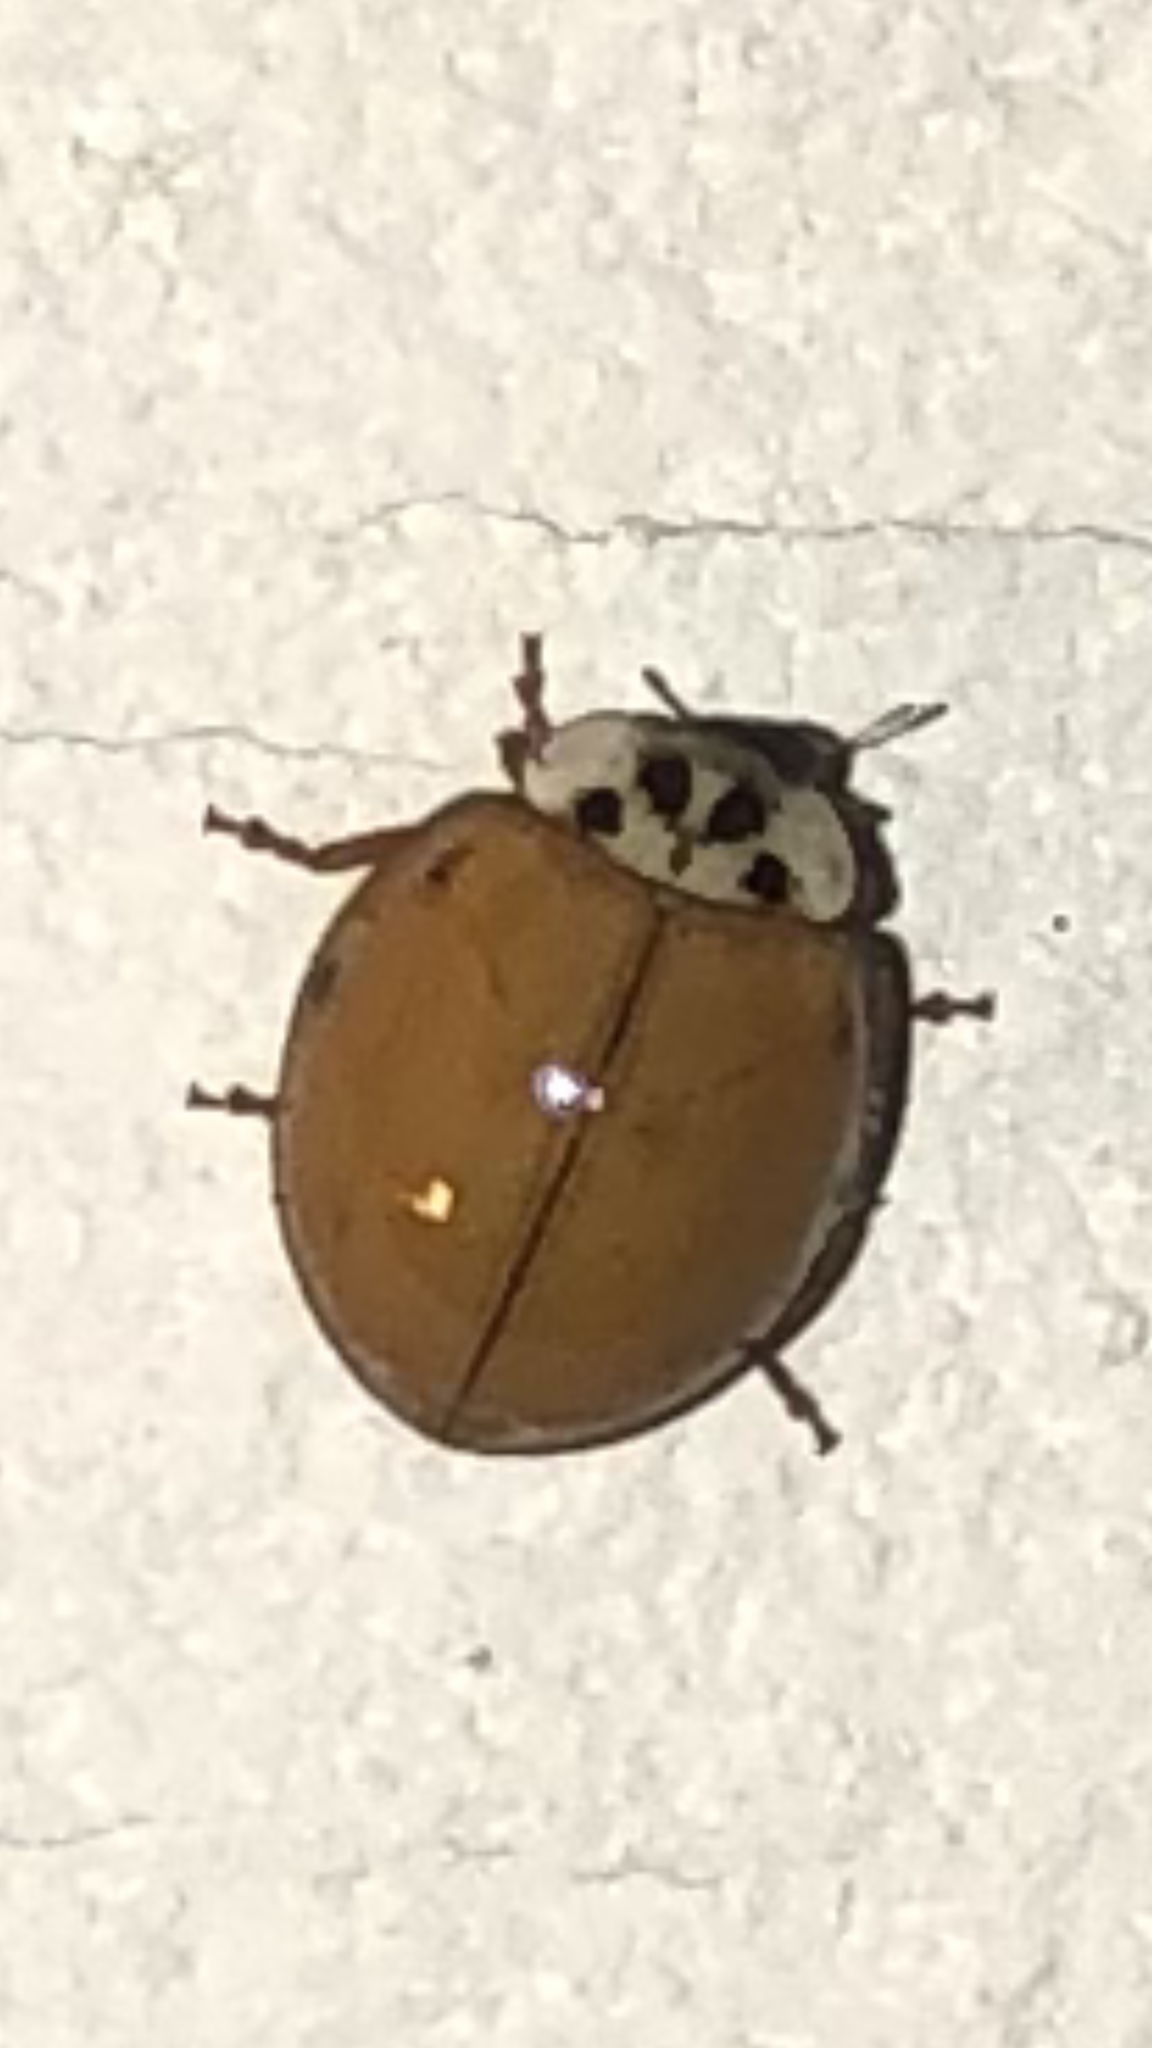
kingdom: Animalia
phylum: Arthropoda
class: Insecta
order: Coleoptera
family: Coccinellidae
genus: Harmonia
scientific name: Harmonia axyridis
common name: Harlequin ladybird
